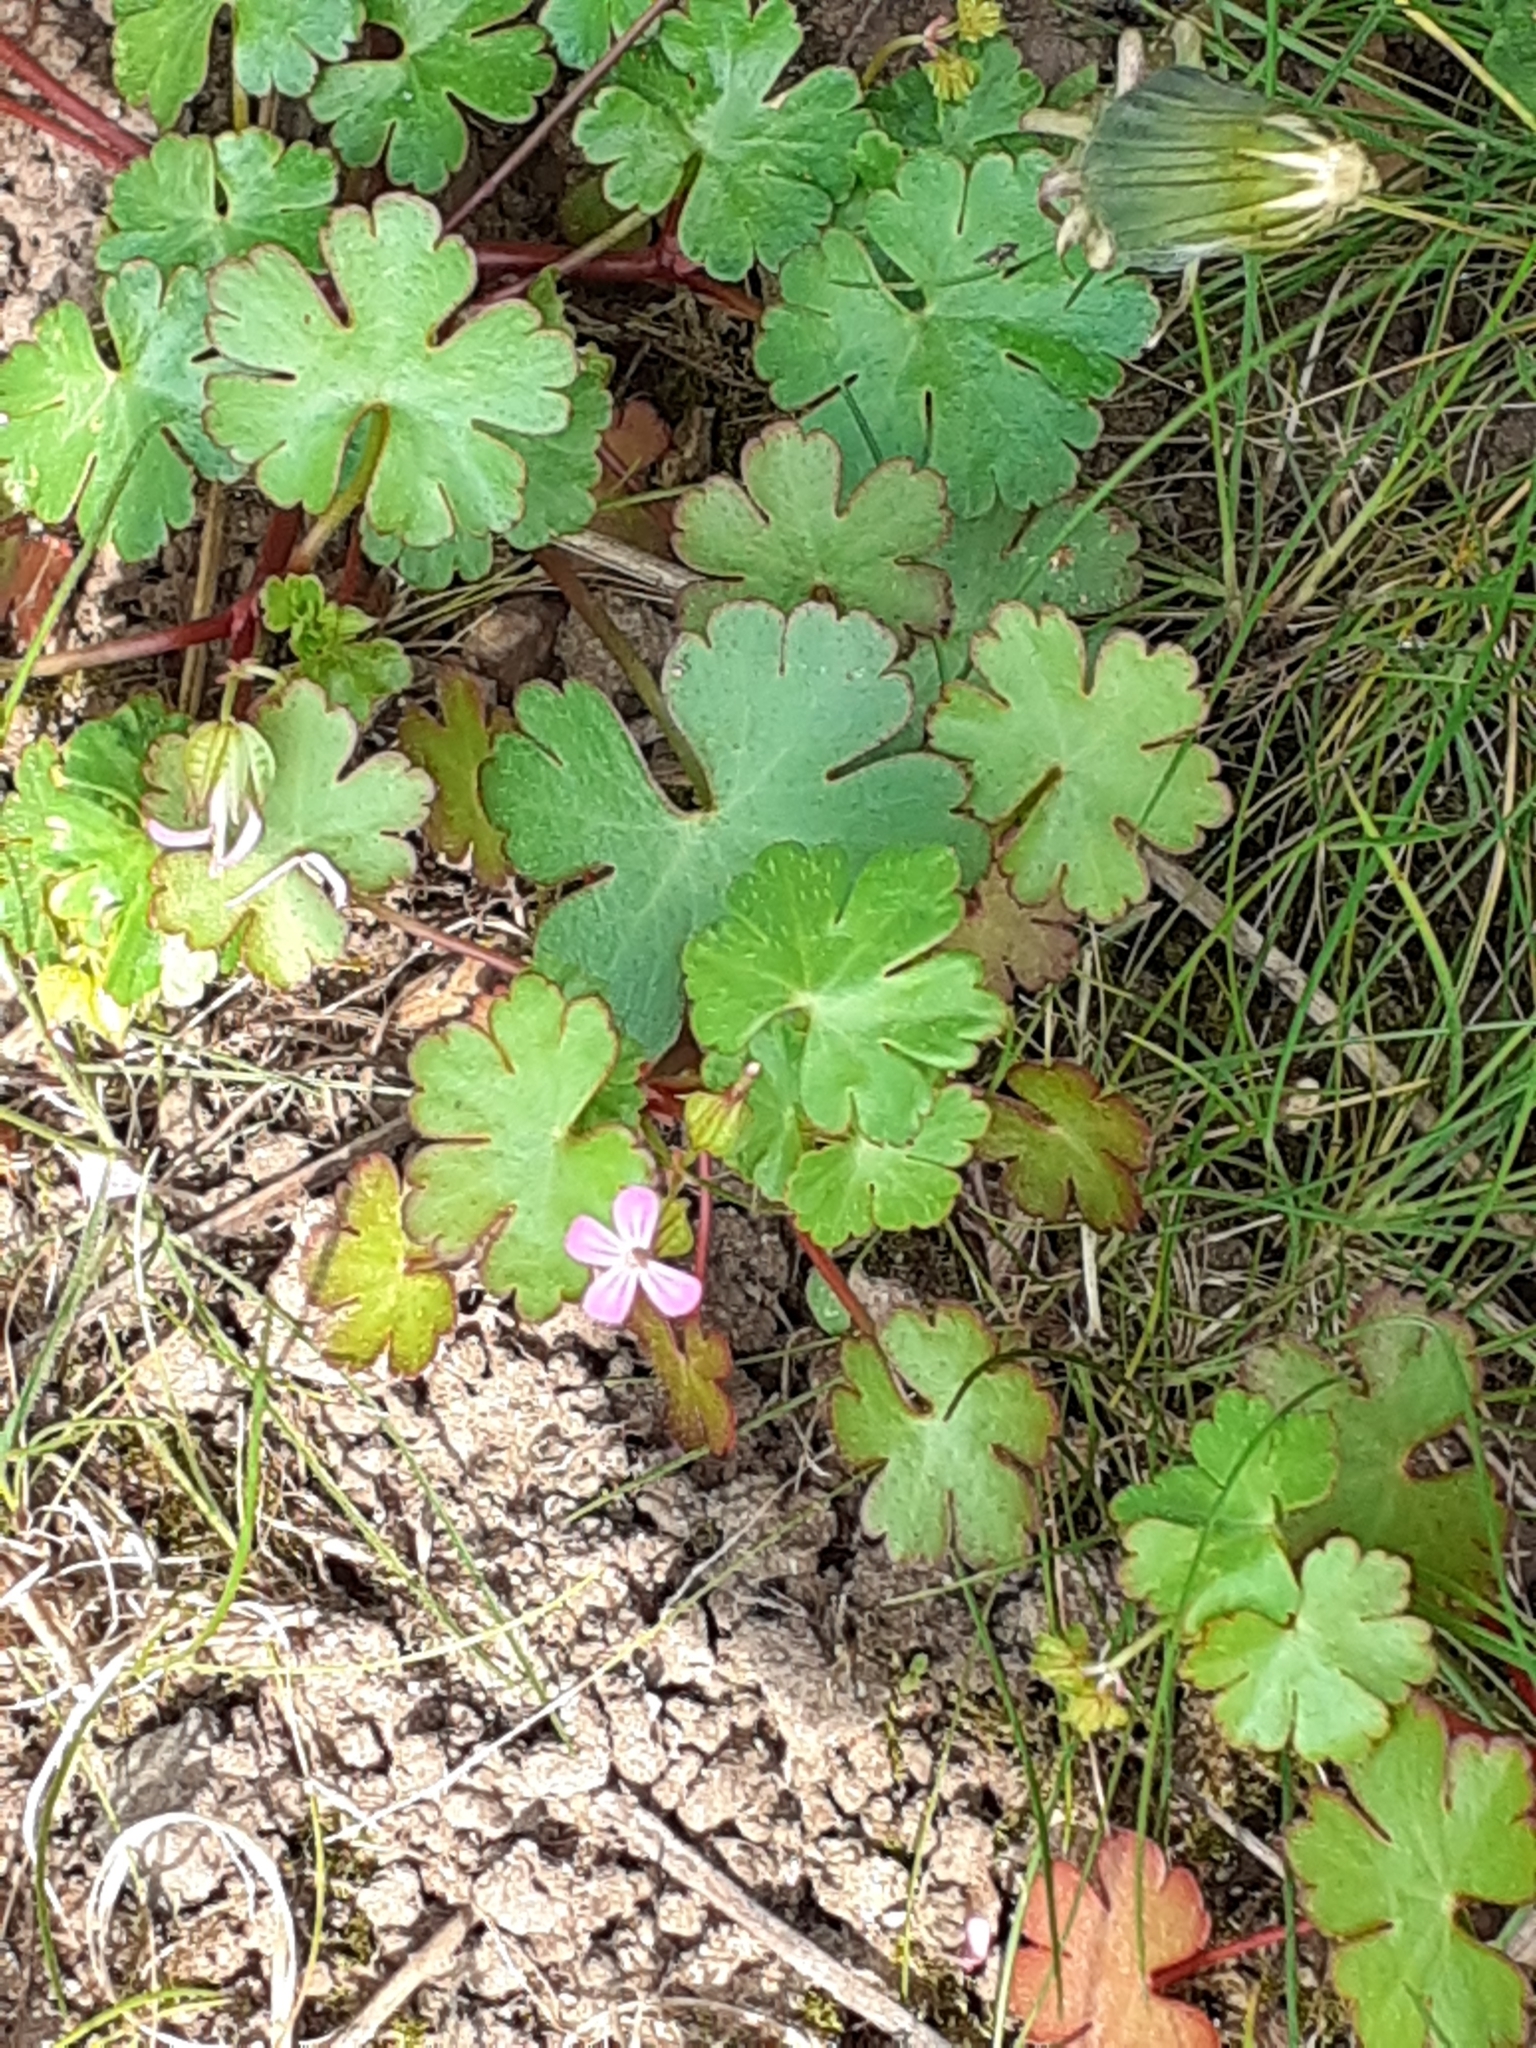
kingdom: Plantae
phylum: Tracheophyta
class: Magnoliopsida
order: Geraniales
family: Geraniaceae
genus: Geranium
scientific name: Geranium lucidum
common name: Shining crane's-bill
